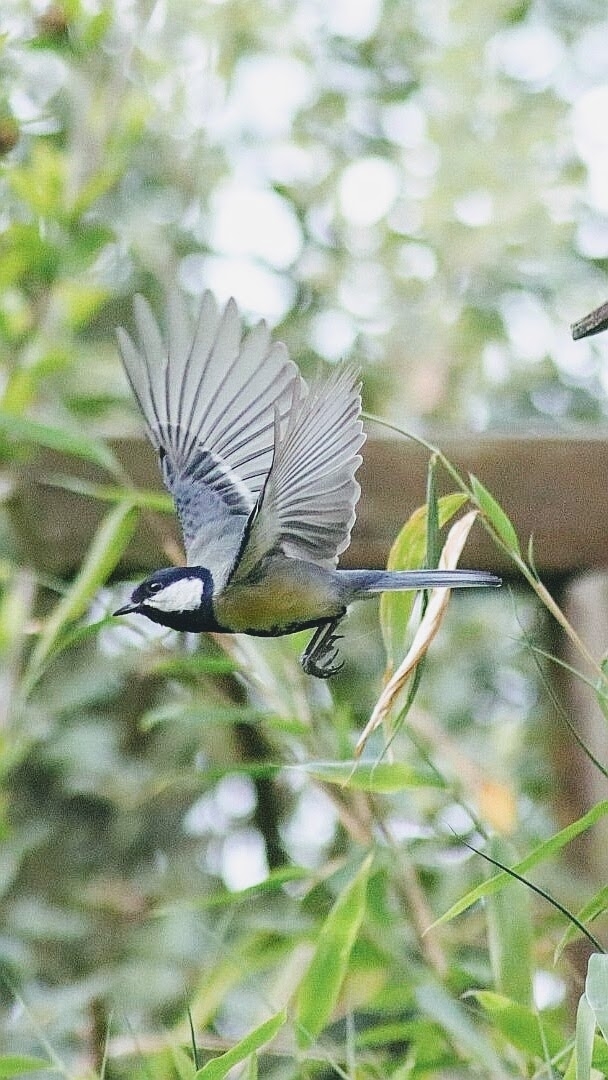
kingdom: Animalia
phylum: Chordata
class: Aves
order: Passeriformes
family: Paridae
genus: Parus
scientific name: Parus major
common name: Great tit
